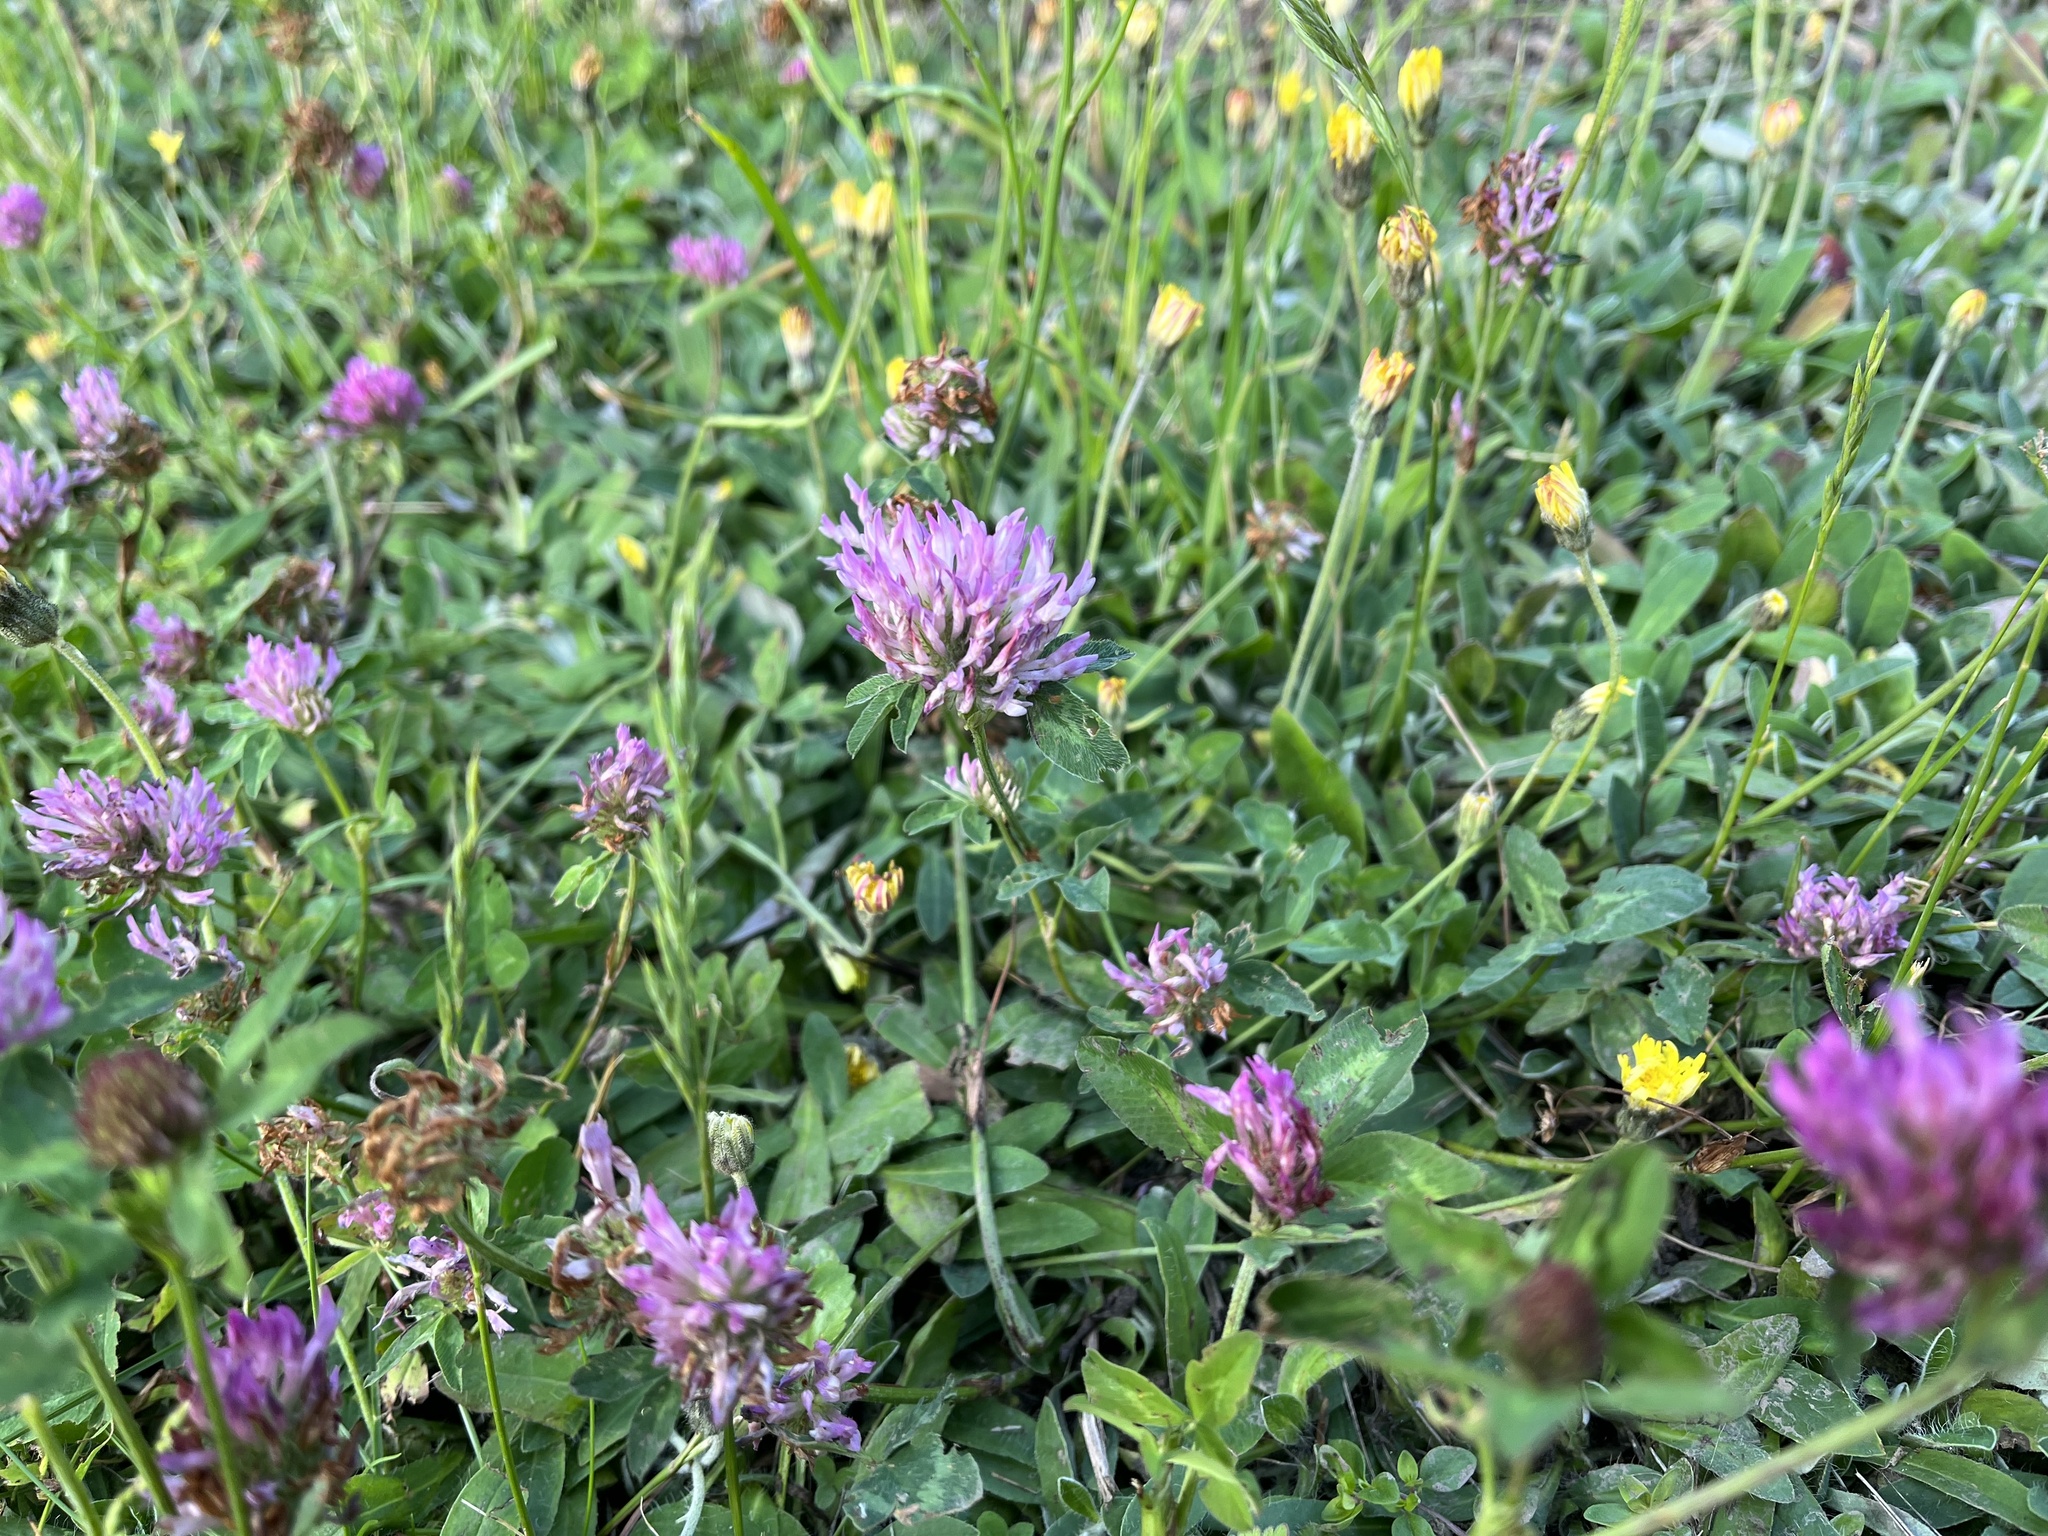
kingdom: Plantae
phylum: Tracheophyta
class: Magnoliopsida
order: Fabales
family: Fabaceae
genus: Trifolium
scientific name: Trifolium pratense
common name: Red clover
